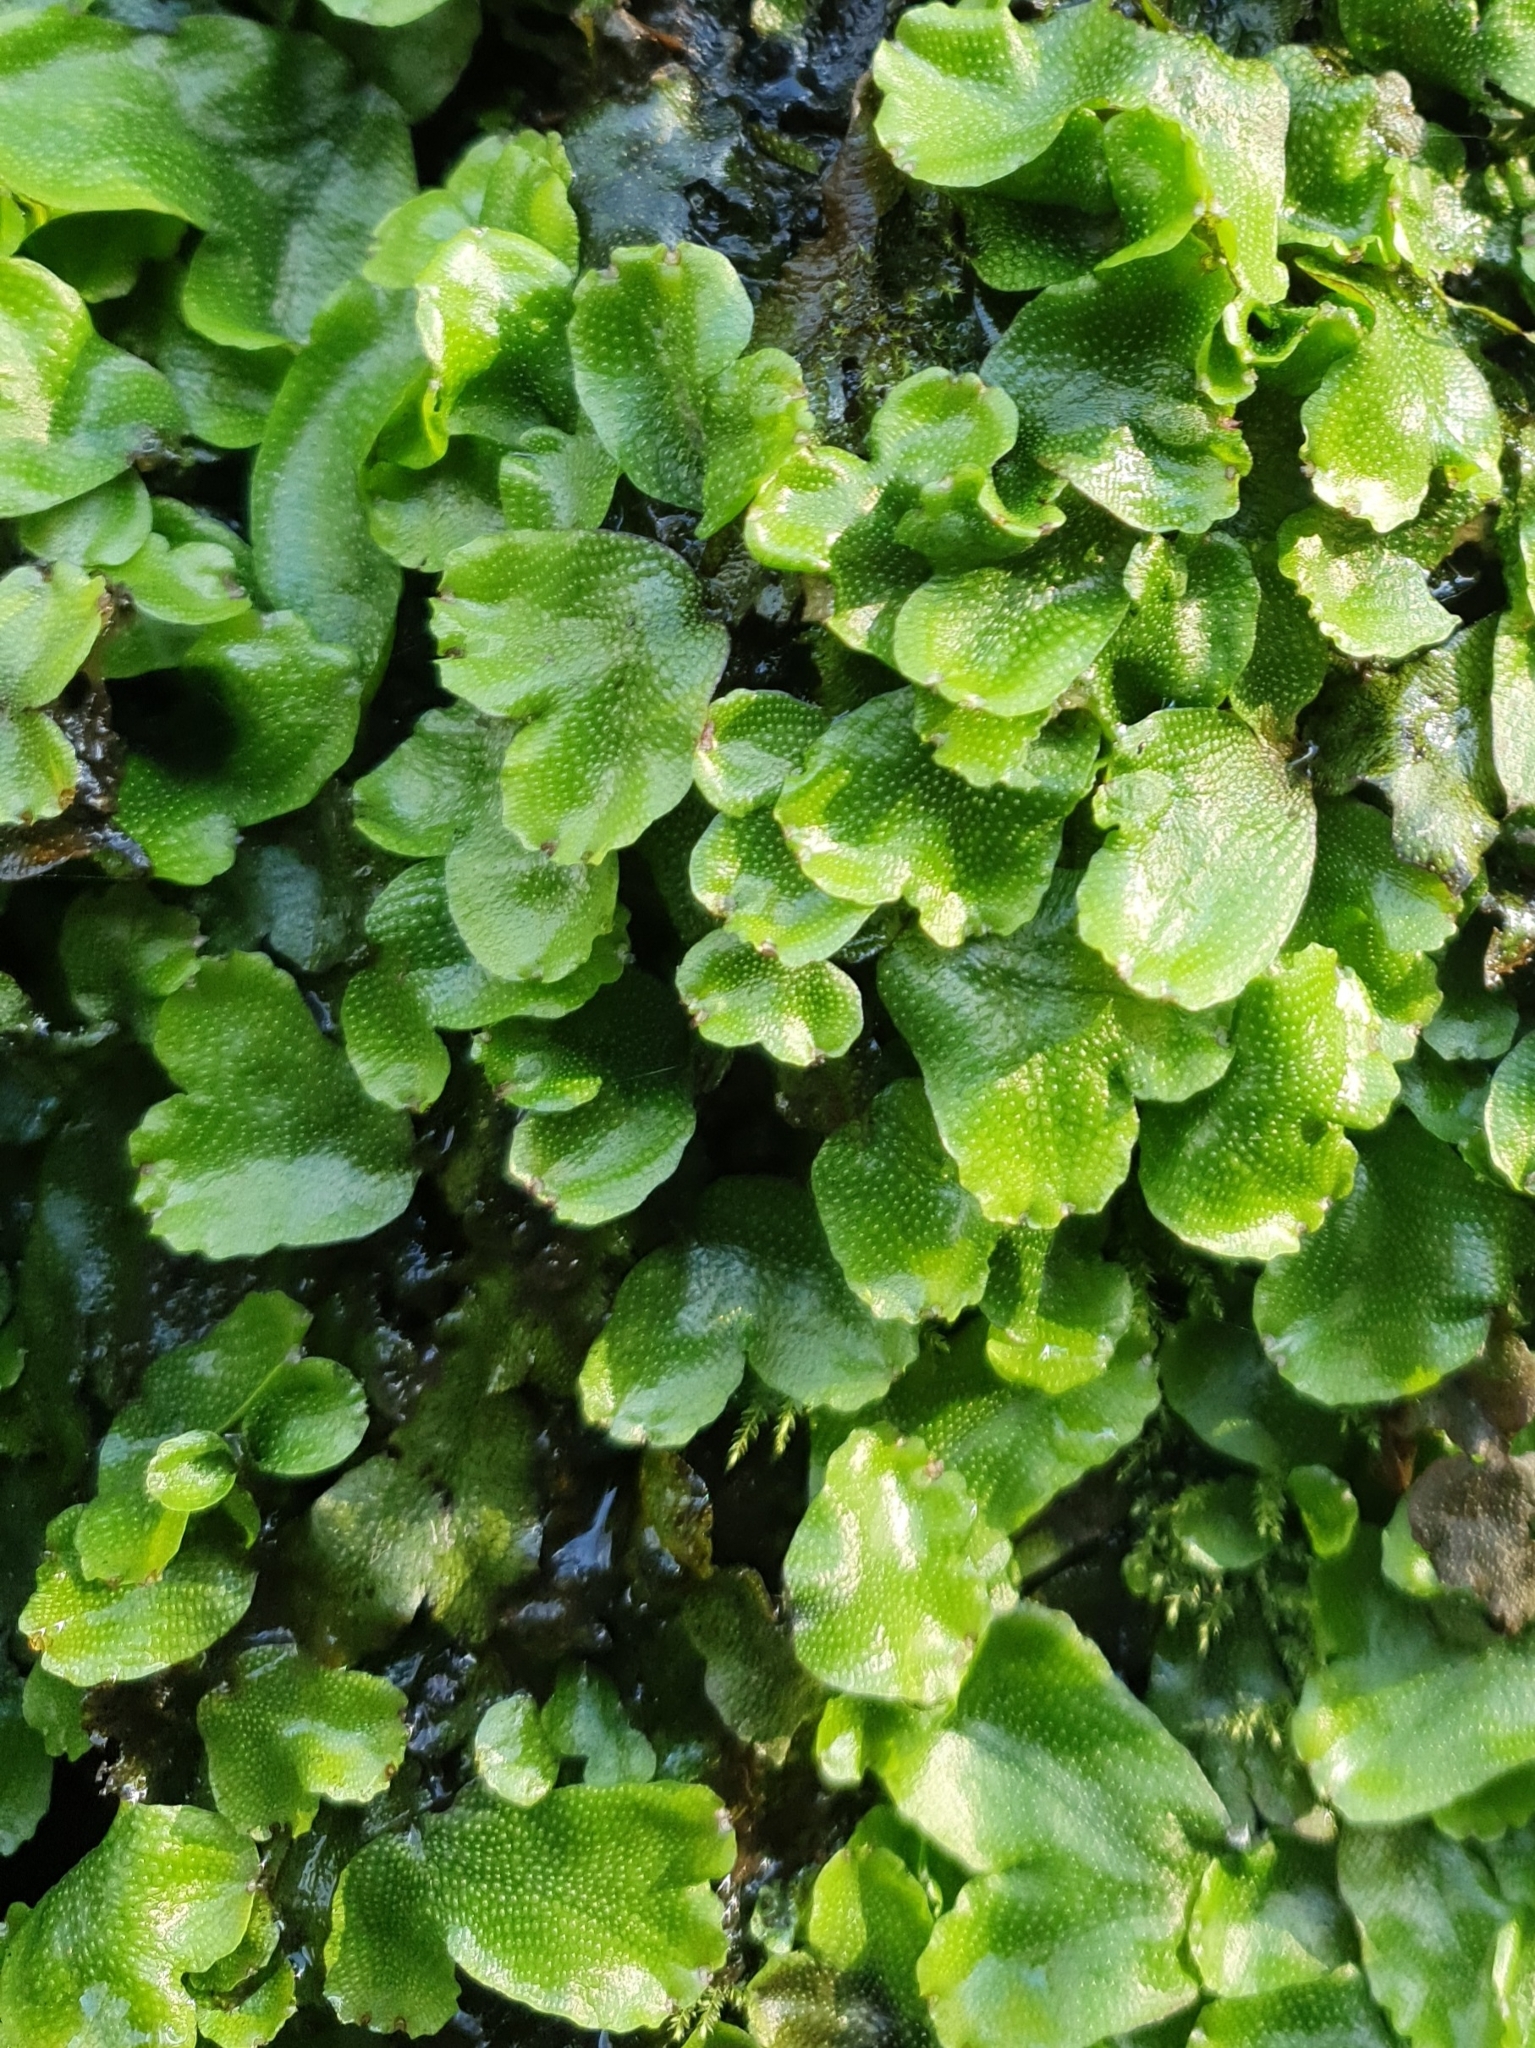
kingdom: Plantae
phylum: Marchantiophyta
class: Marchantiopsida
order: Marchantiales
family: Conocephalaceae
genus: Conocephalum
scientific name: Conocephalum conicum
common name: Great scented liverwort
